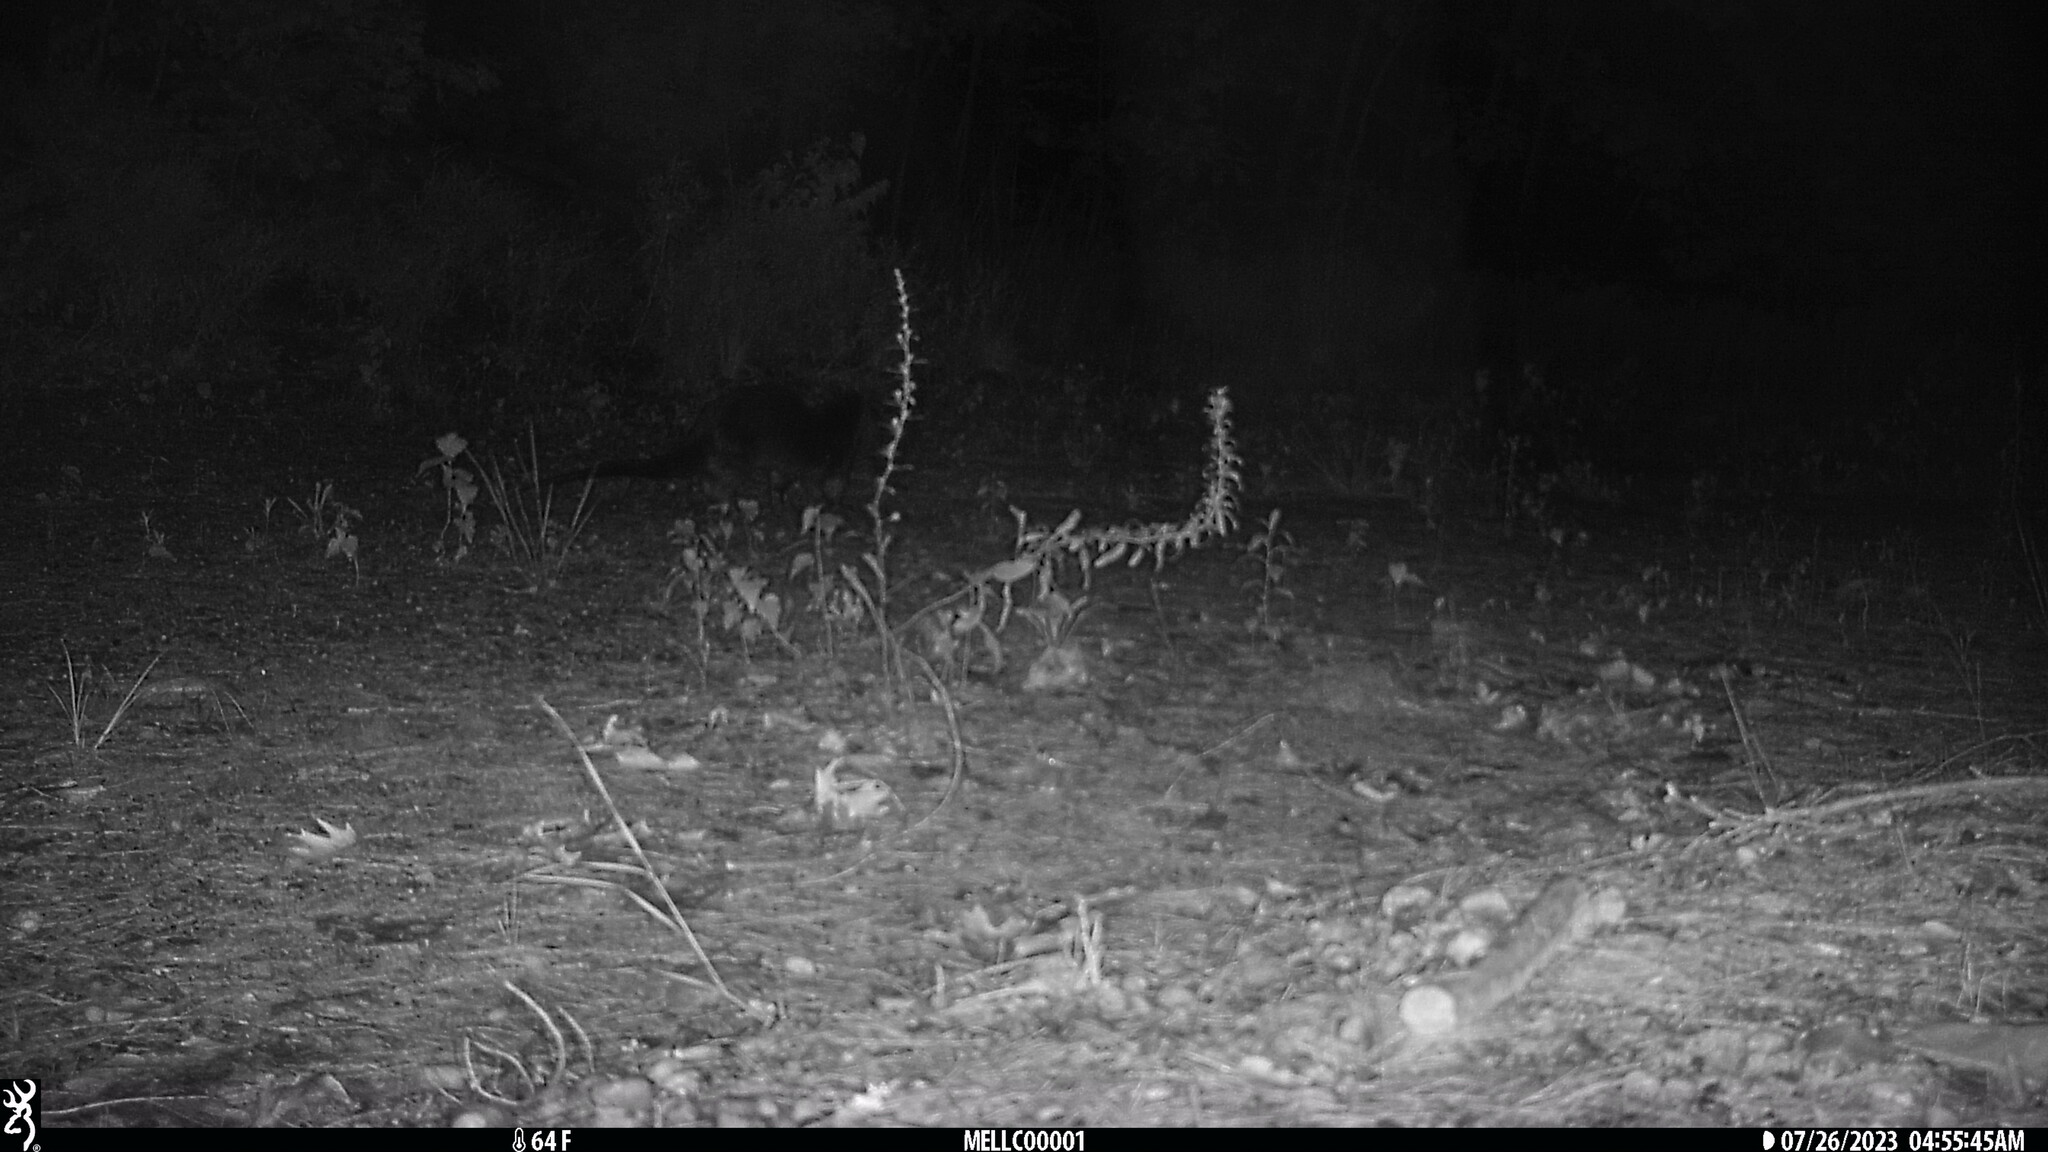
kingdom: Animalia
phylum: Chordata
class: Mammalia
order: Carnivora
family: Mustelidae
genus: Lontra
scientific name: Lontra canadensis
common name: North american river otter
